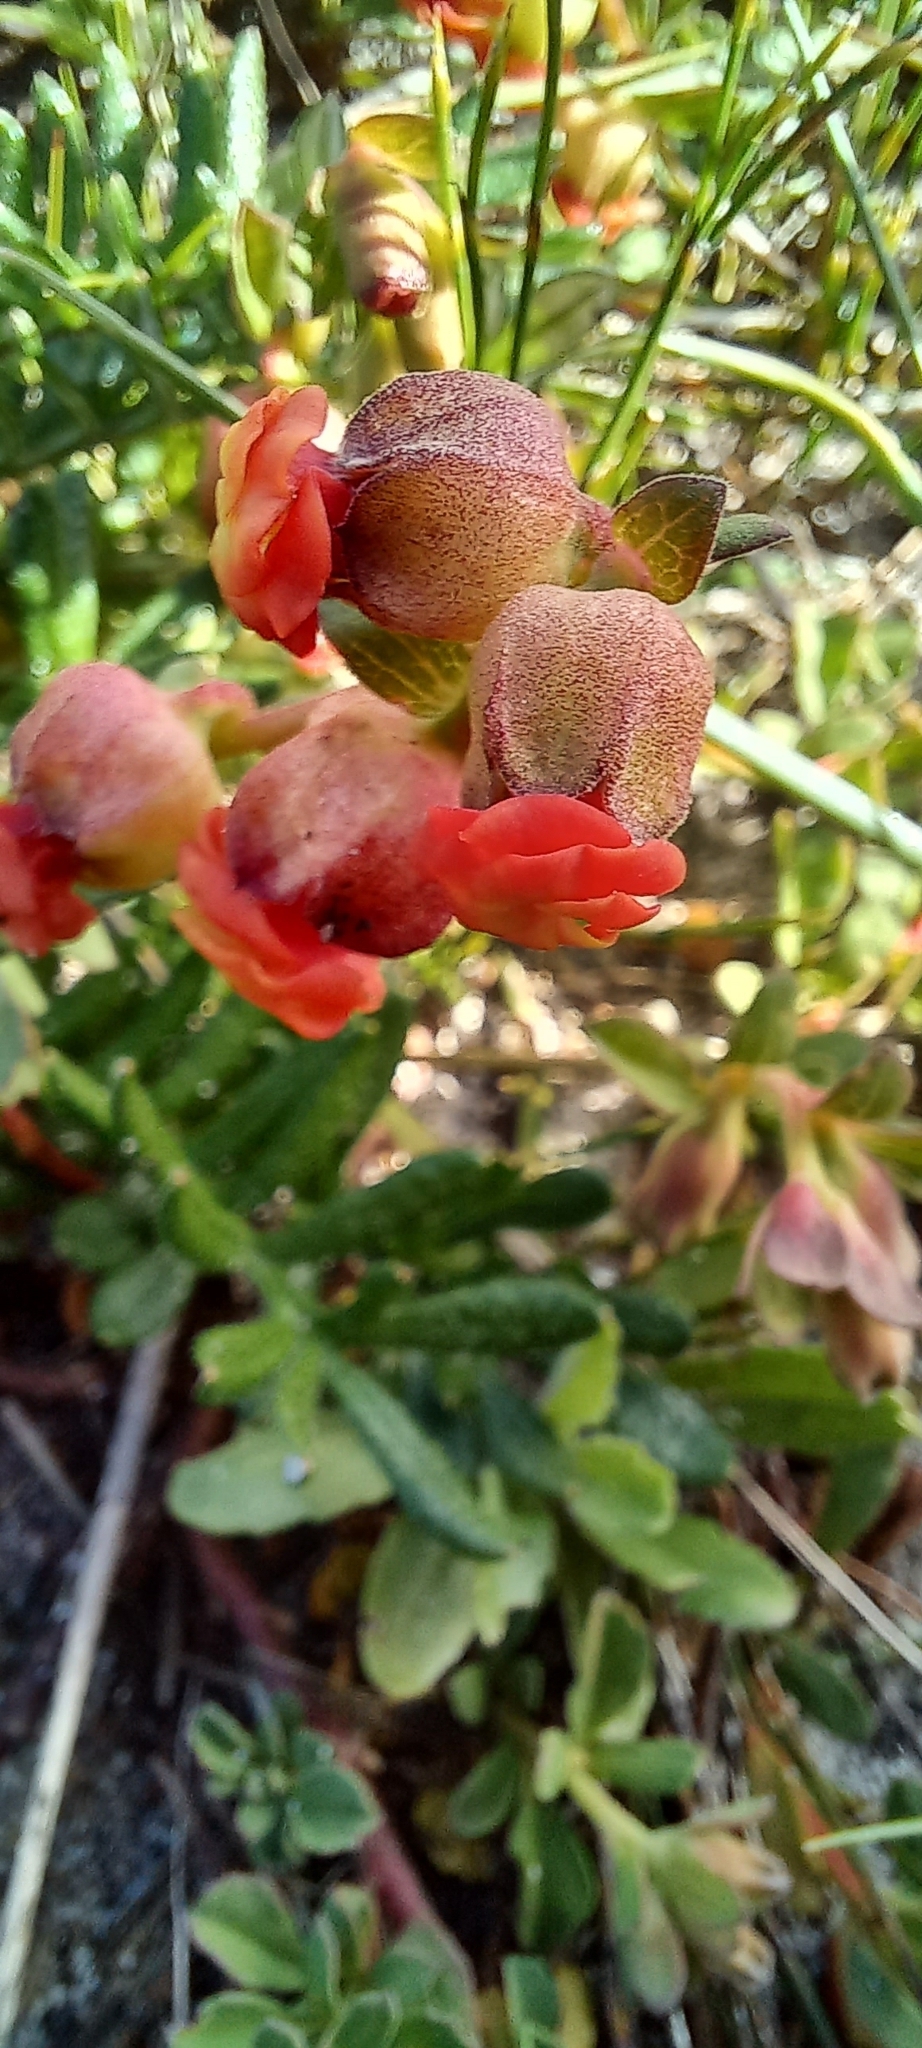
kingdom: Plantae
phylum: Tracheophyta
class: Magnoliopsida
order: Malvales
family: Malvaceae
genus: Hermannia
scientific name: Hermannia ternifolia
